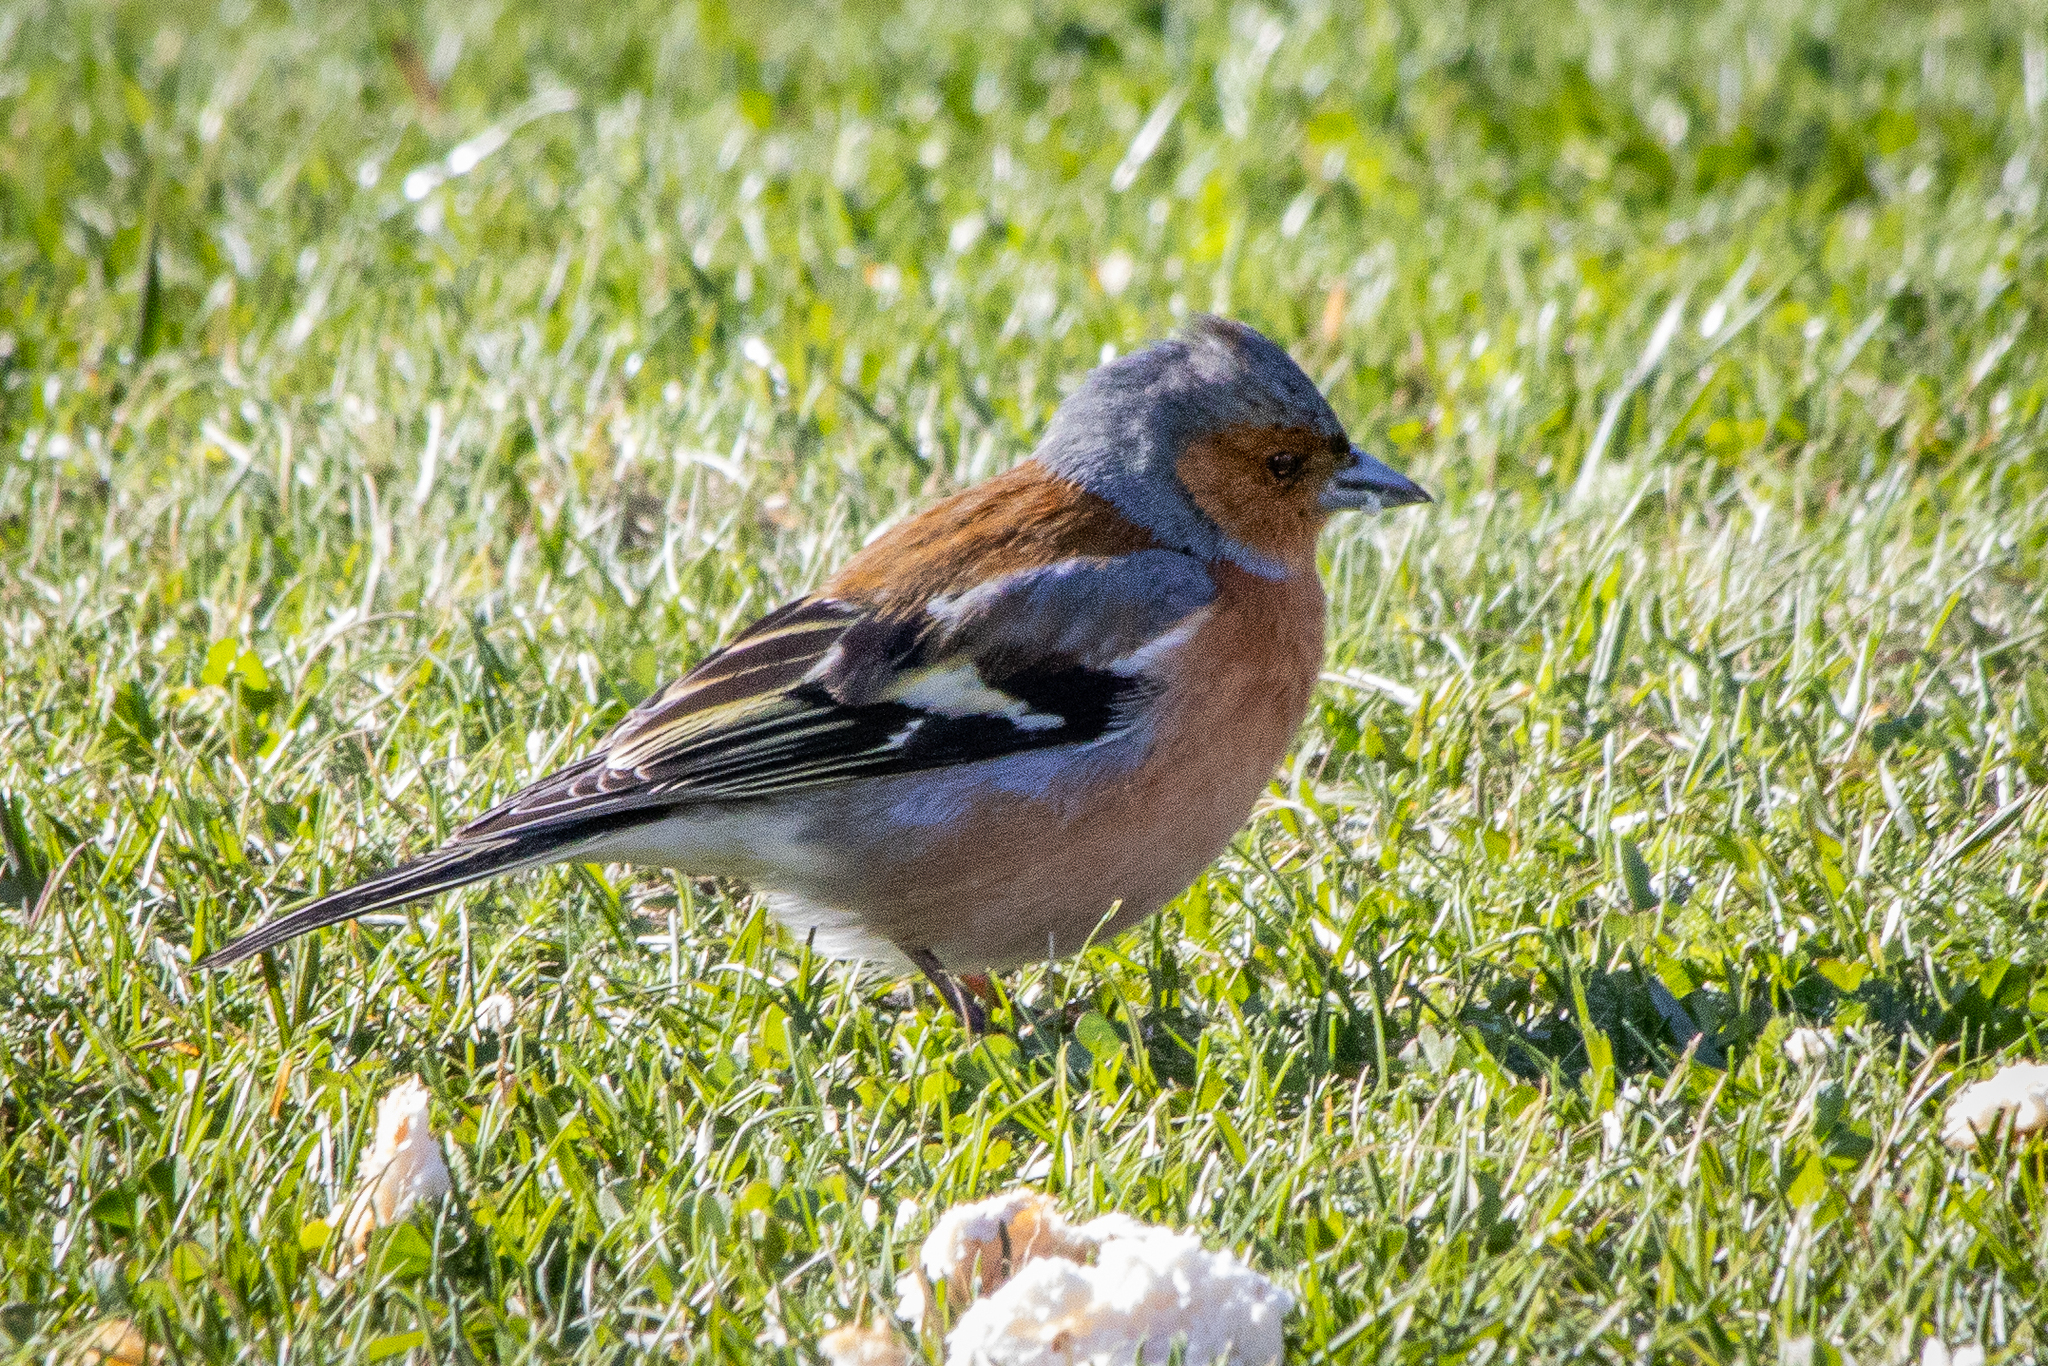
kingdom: Animalia
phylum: Chordata
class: Aves
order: Passeriformes
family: Fringillidae
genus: Fringilla
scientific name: Fringilla coelebs
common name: Common chaffinch
